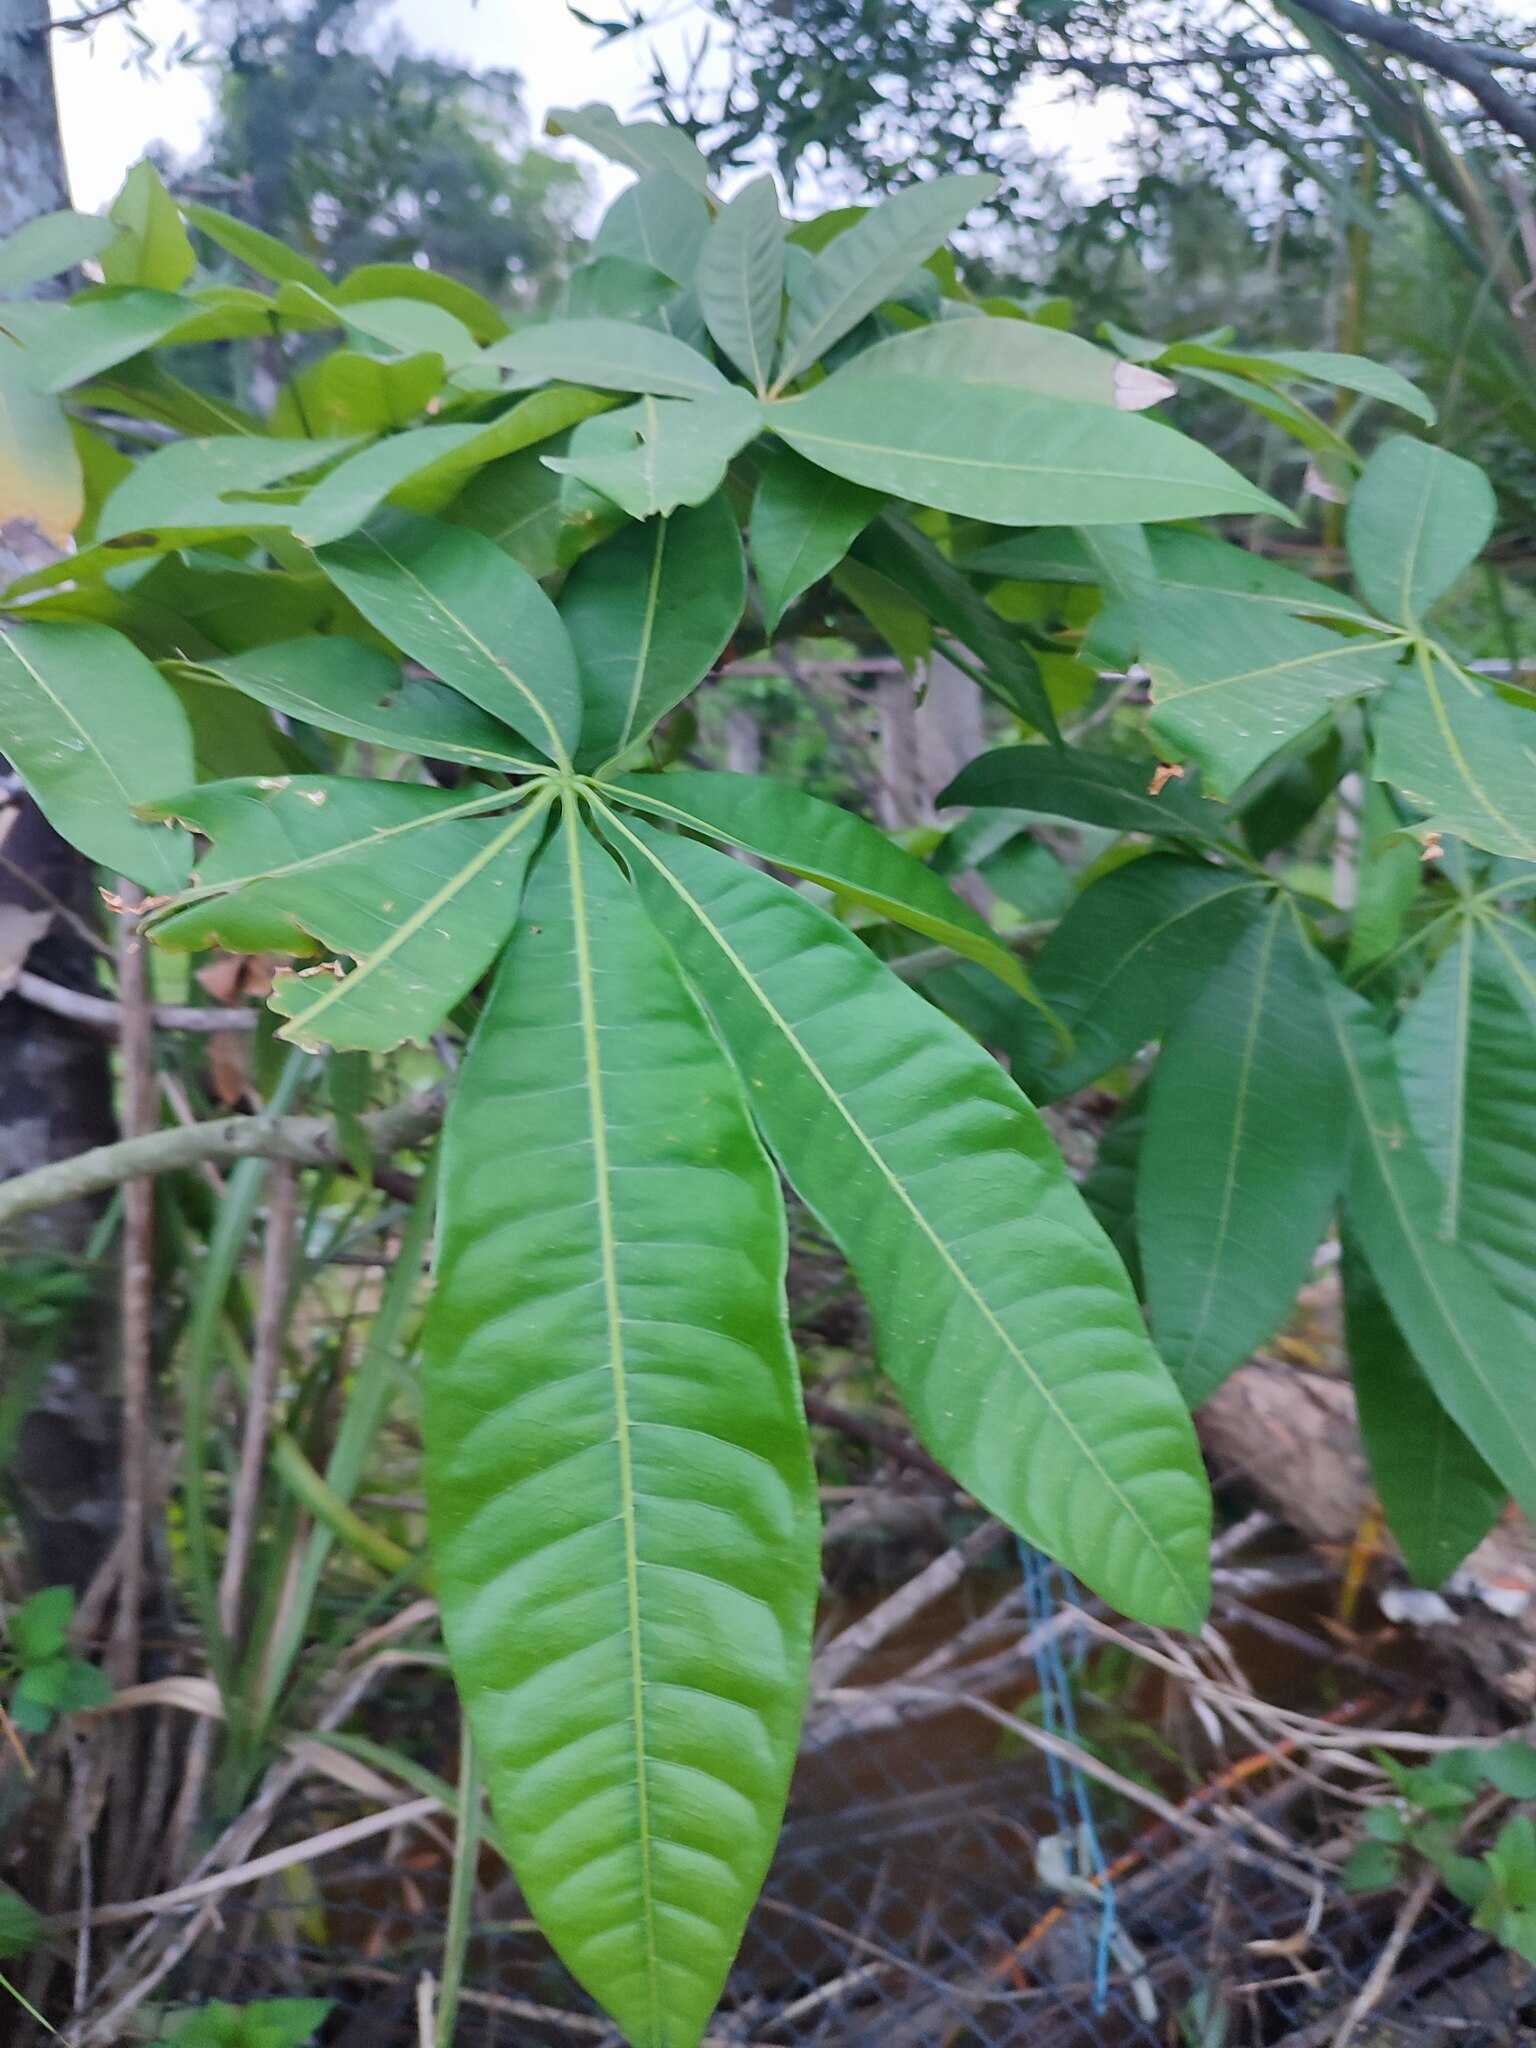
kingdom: Plantae
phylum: Tracheophyta
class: Magnoliopsida
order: Malvales
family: Malvaceae
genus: Pachira
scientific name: Pachira glabra
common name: Moneytree
